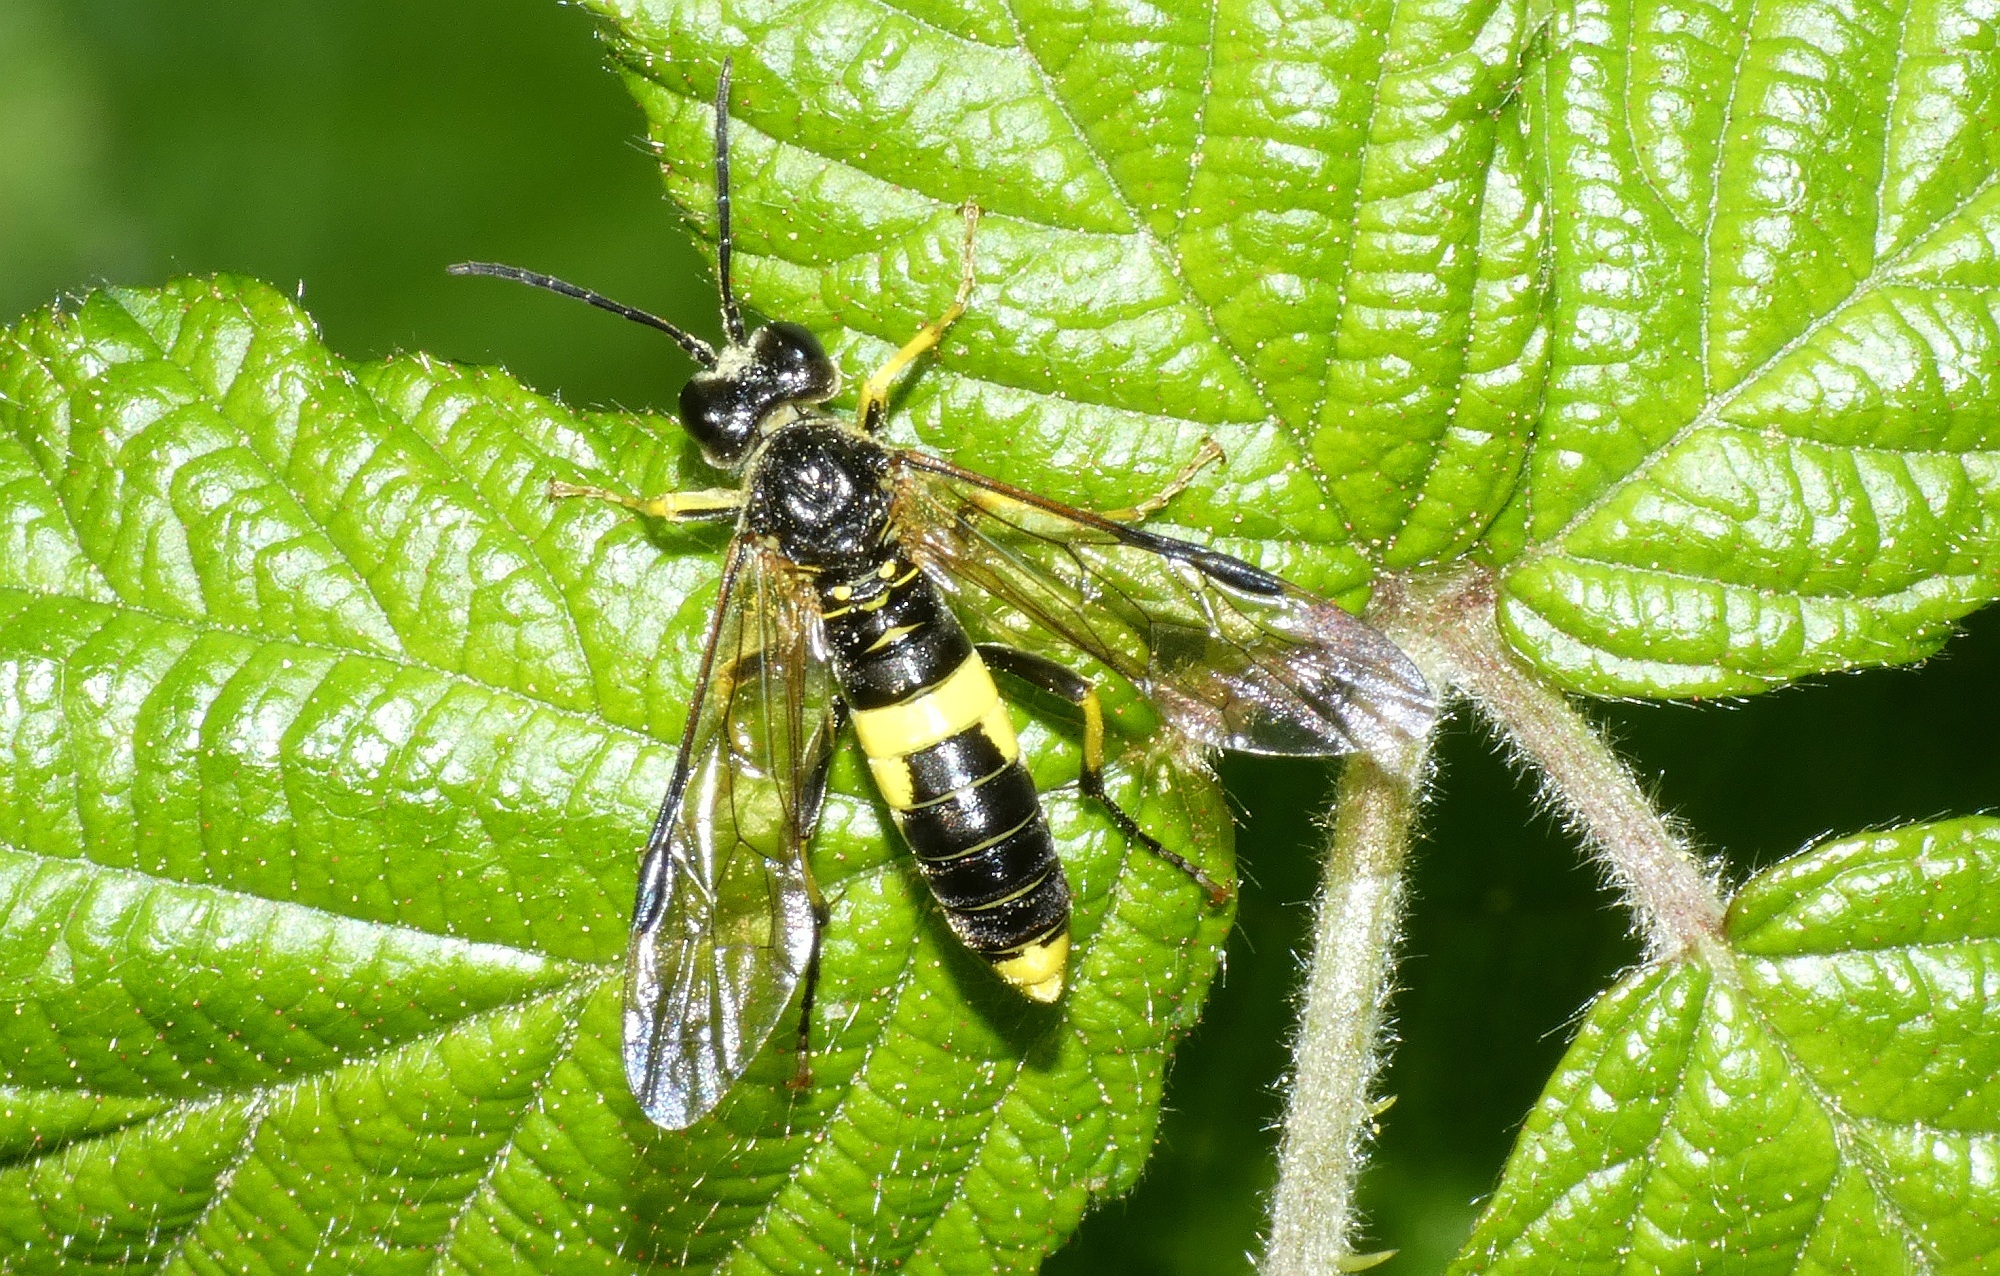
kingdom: Animalia
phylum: Arthropoda
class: Insecta
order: Hymenoptera
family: Tenthredinidae
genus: Tenthredo
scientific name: Tenthredo temula
